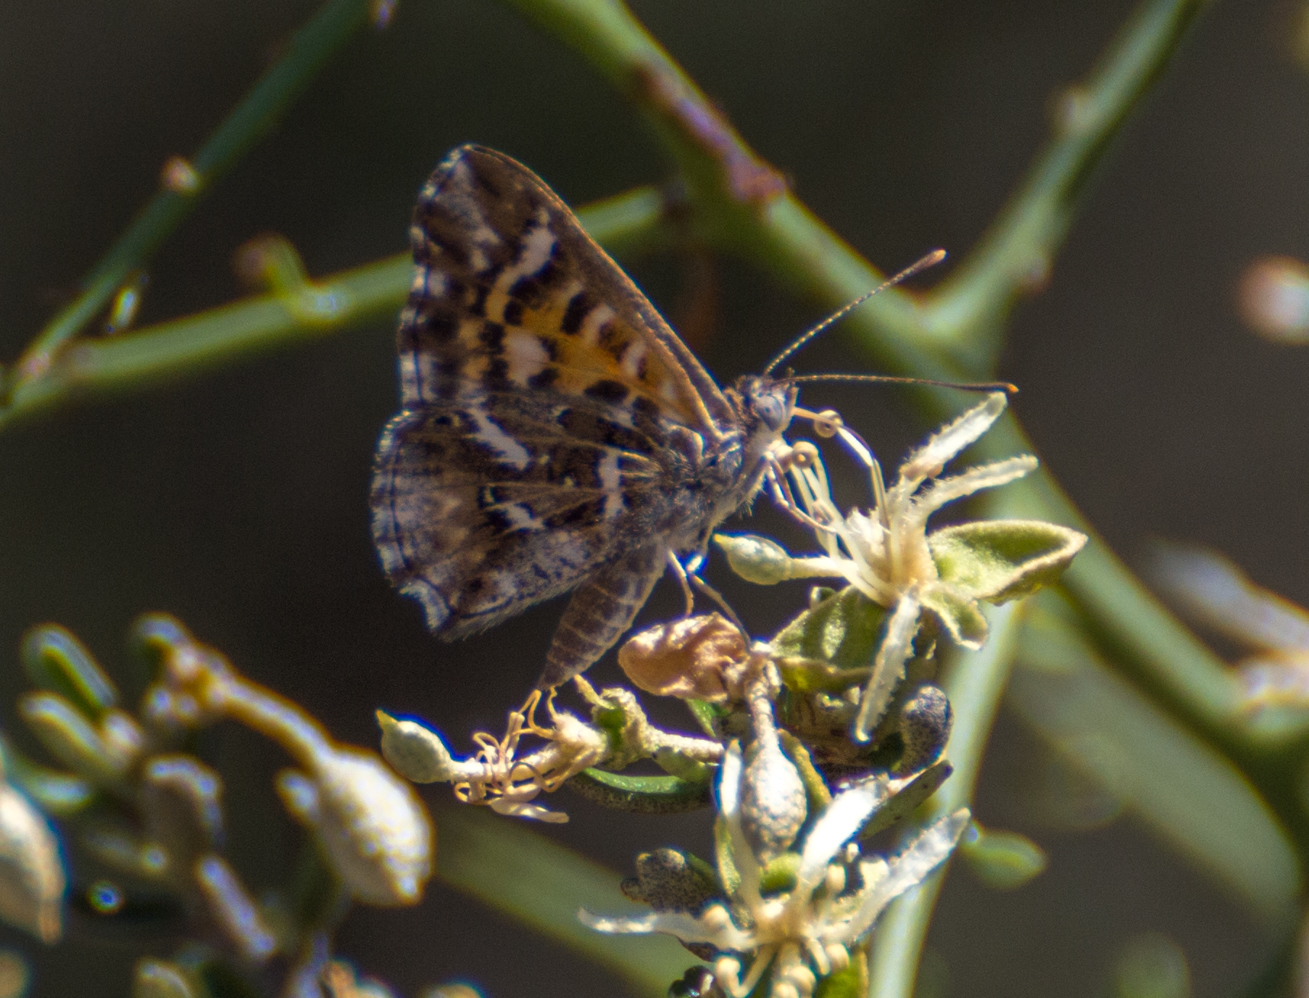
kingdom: Animalia
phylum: Arthropoda
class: Insecta
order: Lepidoptera
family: Lycaenidae
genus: Aricoris
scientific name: Aricoris chilensis
